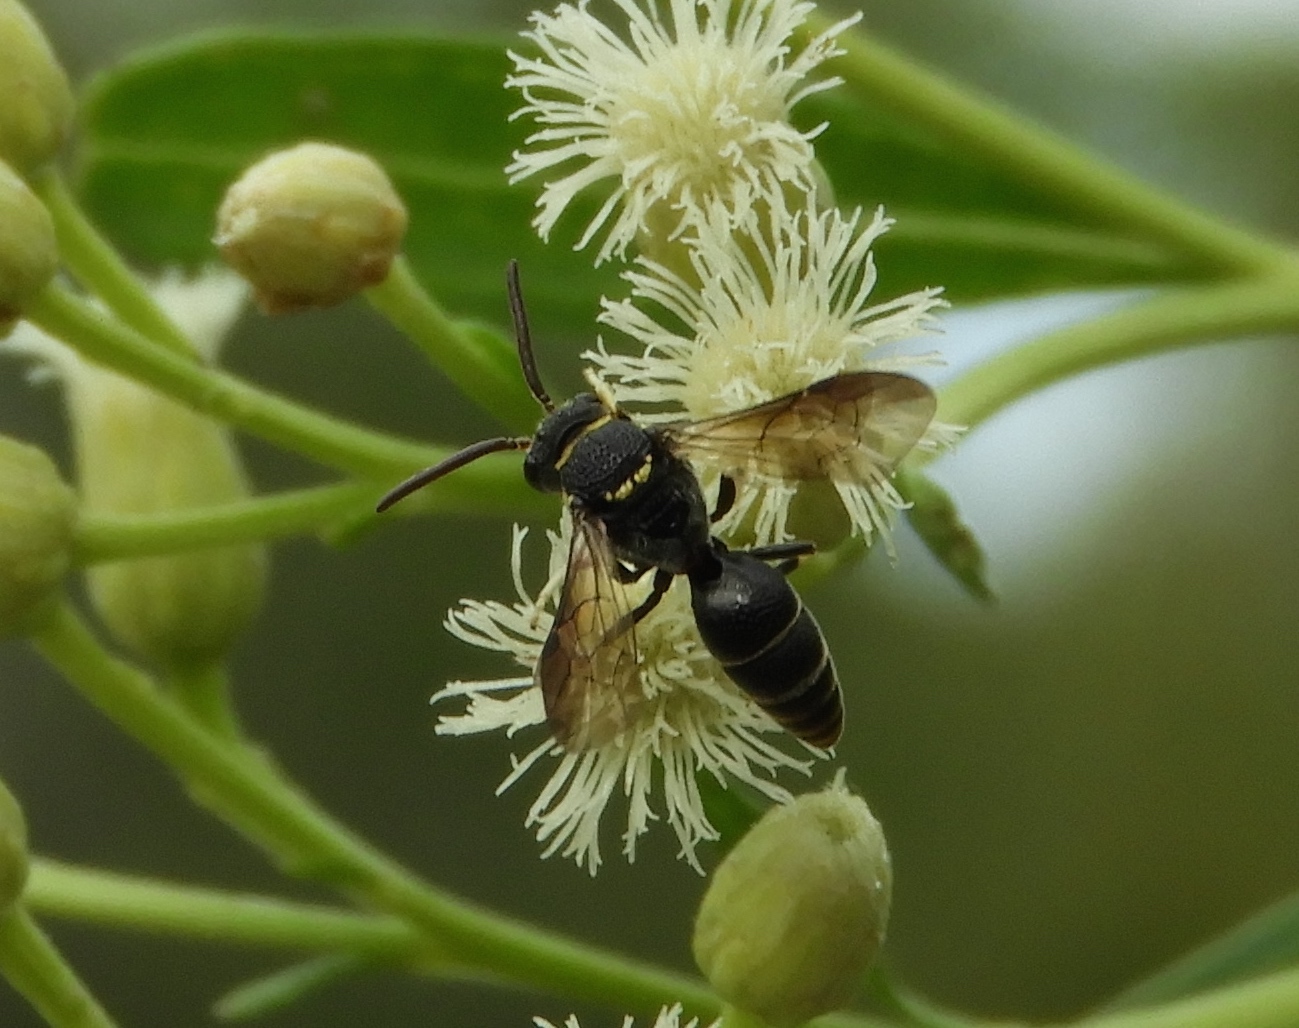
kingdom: Animalia
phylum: Arthropoda
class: Insecta
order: Hymenoptera
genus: Hylaeopsis
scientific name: Hylaeopsis
